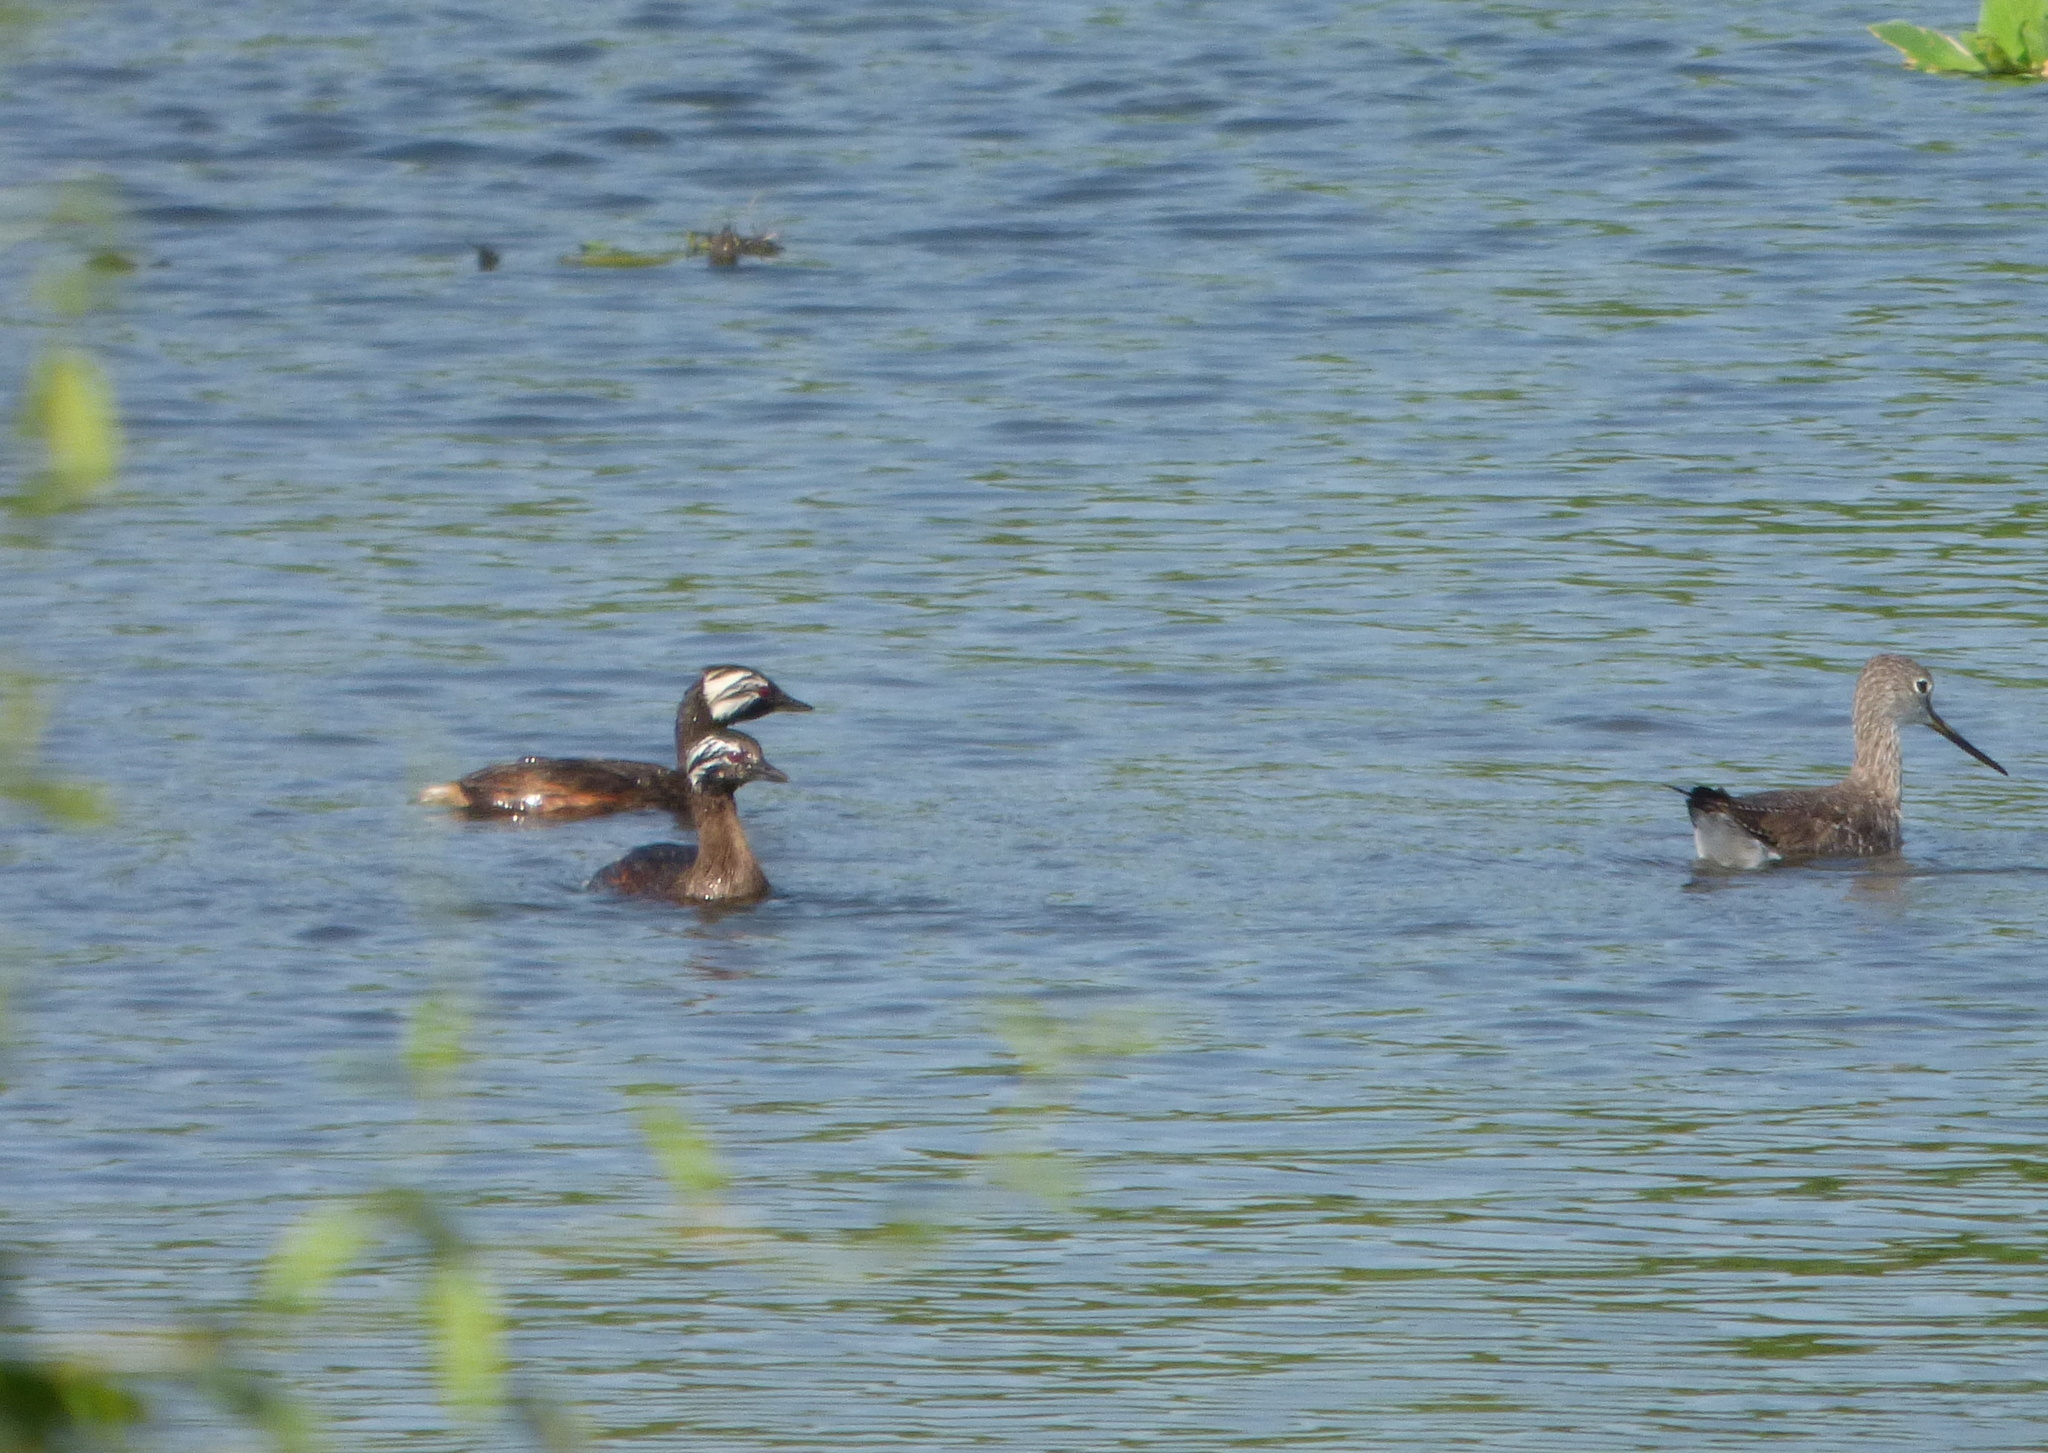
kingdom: Animalia
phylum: Chordata
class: Aves
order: Podicipediformes
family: Podicipedidae
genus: Rollandia
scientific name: Rollandia rolland
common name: White-tufted grebe
